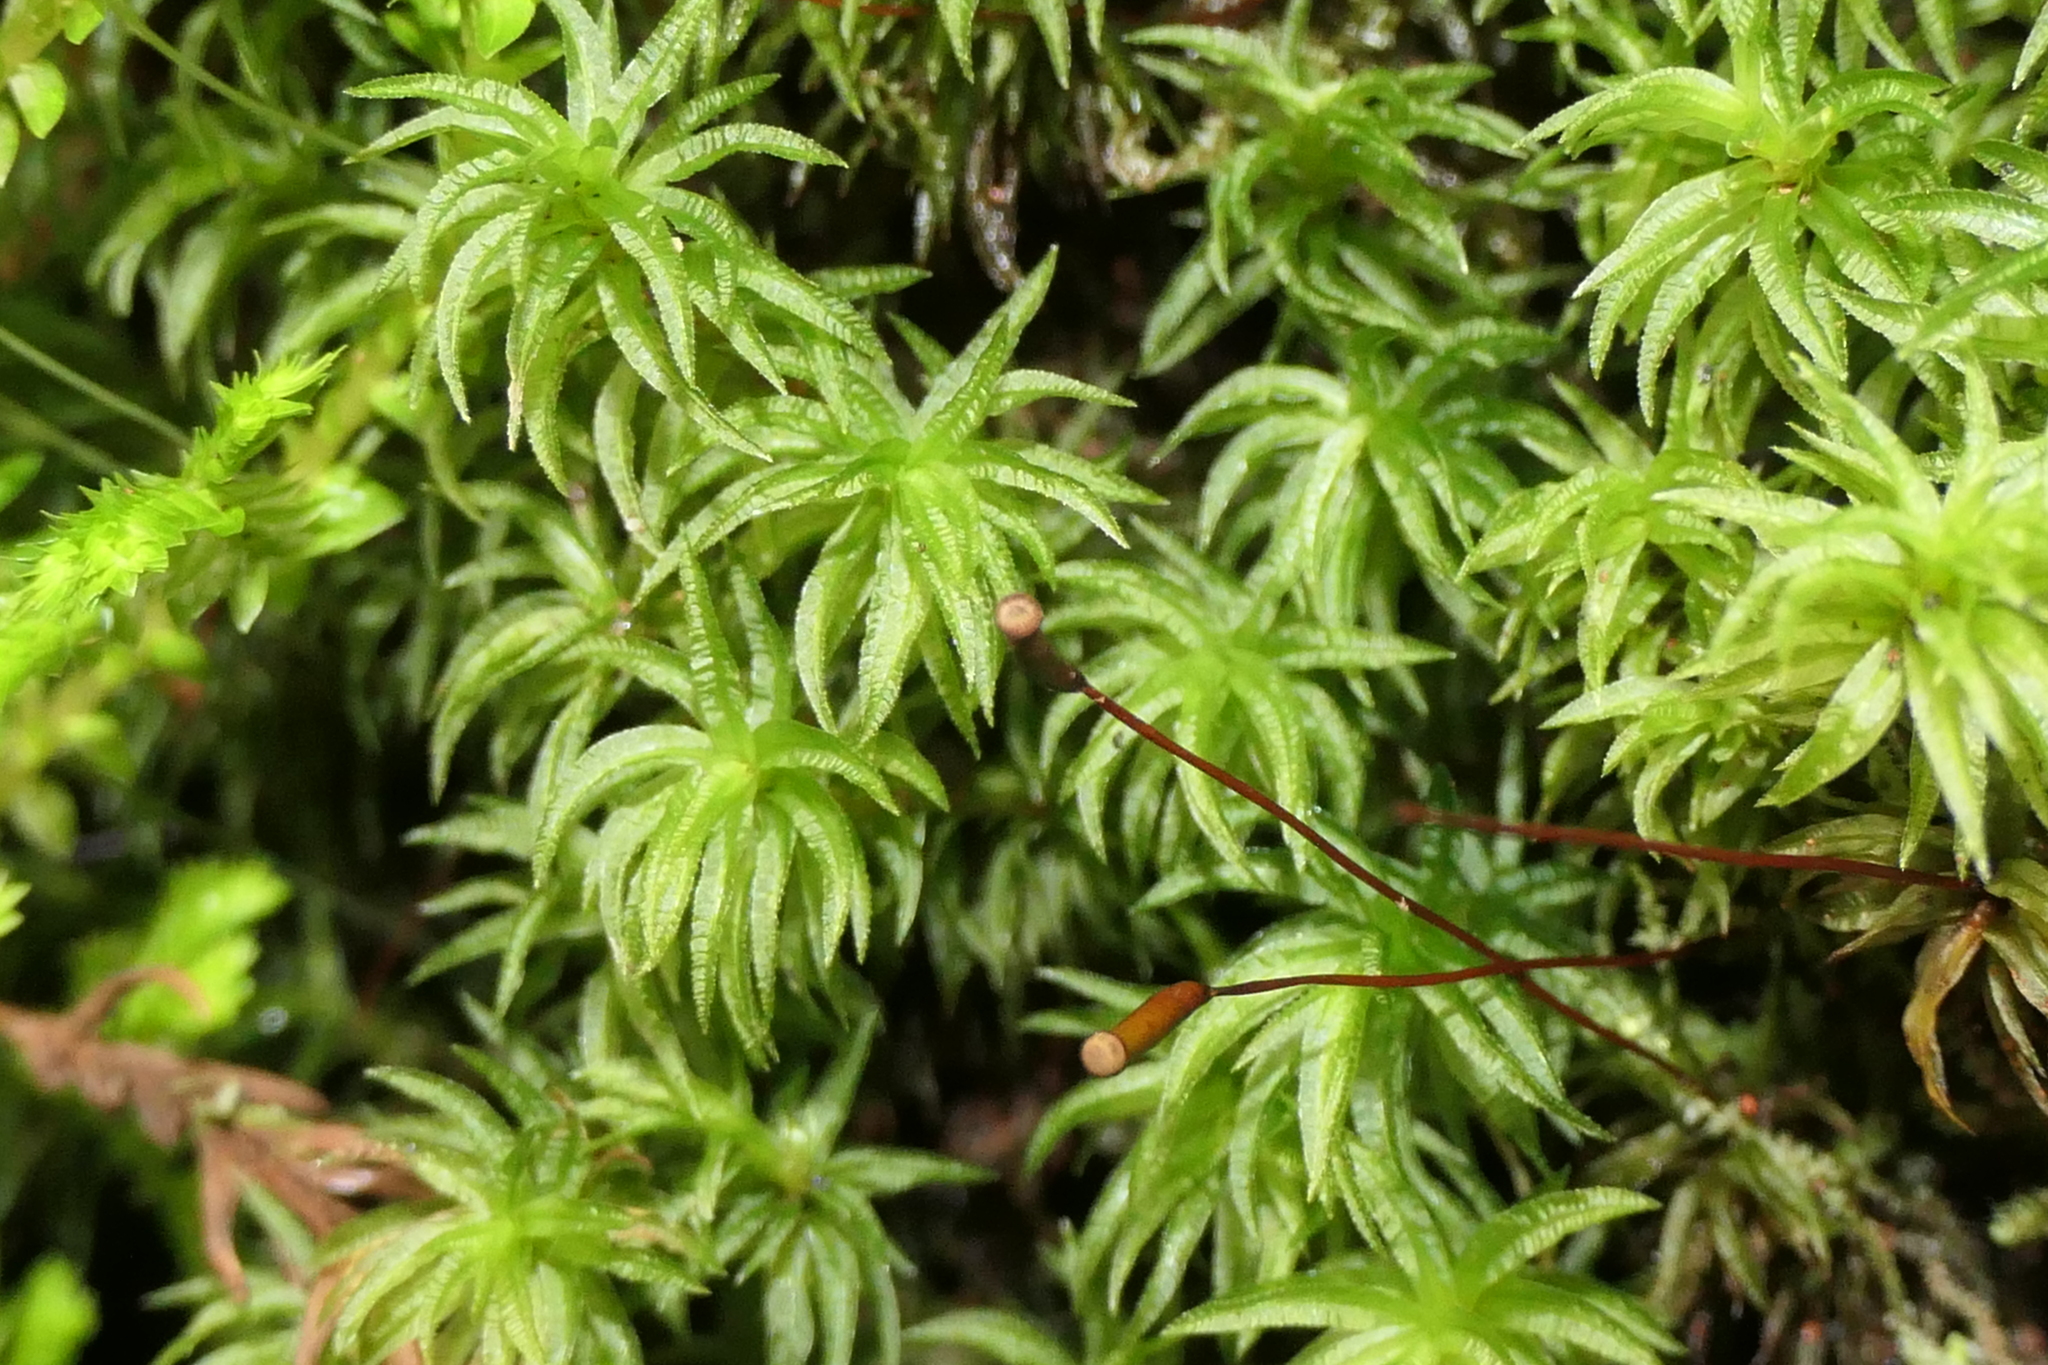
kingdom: Plantae
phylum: Bryophyta
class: Polytrichopsida
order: Polytrichales
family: Polytrichaceae
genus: Atrichum
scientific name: Atrichum undulatum
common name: Common smoothcap
